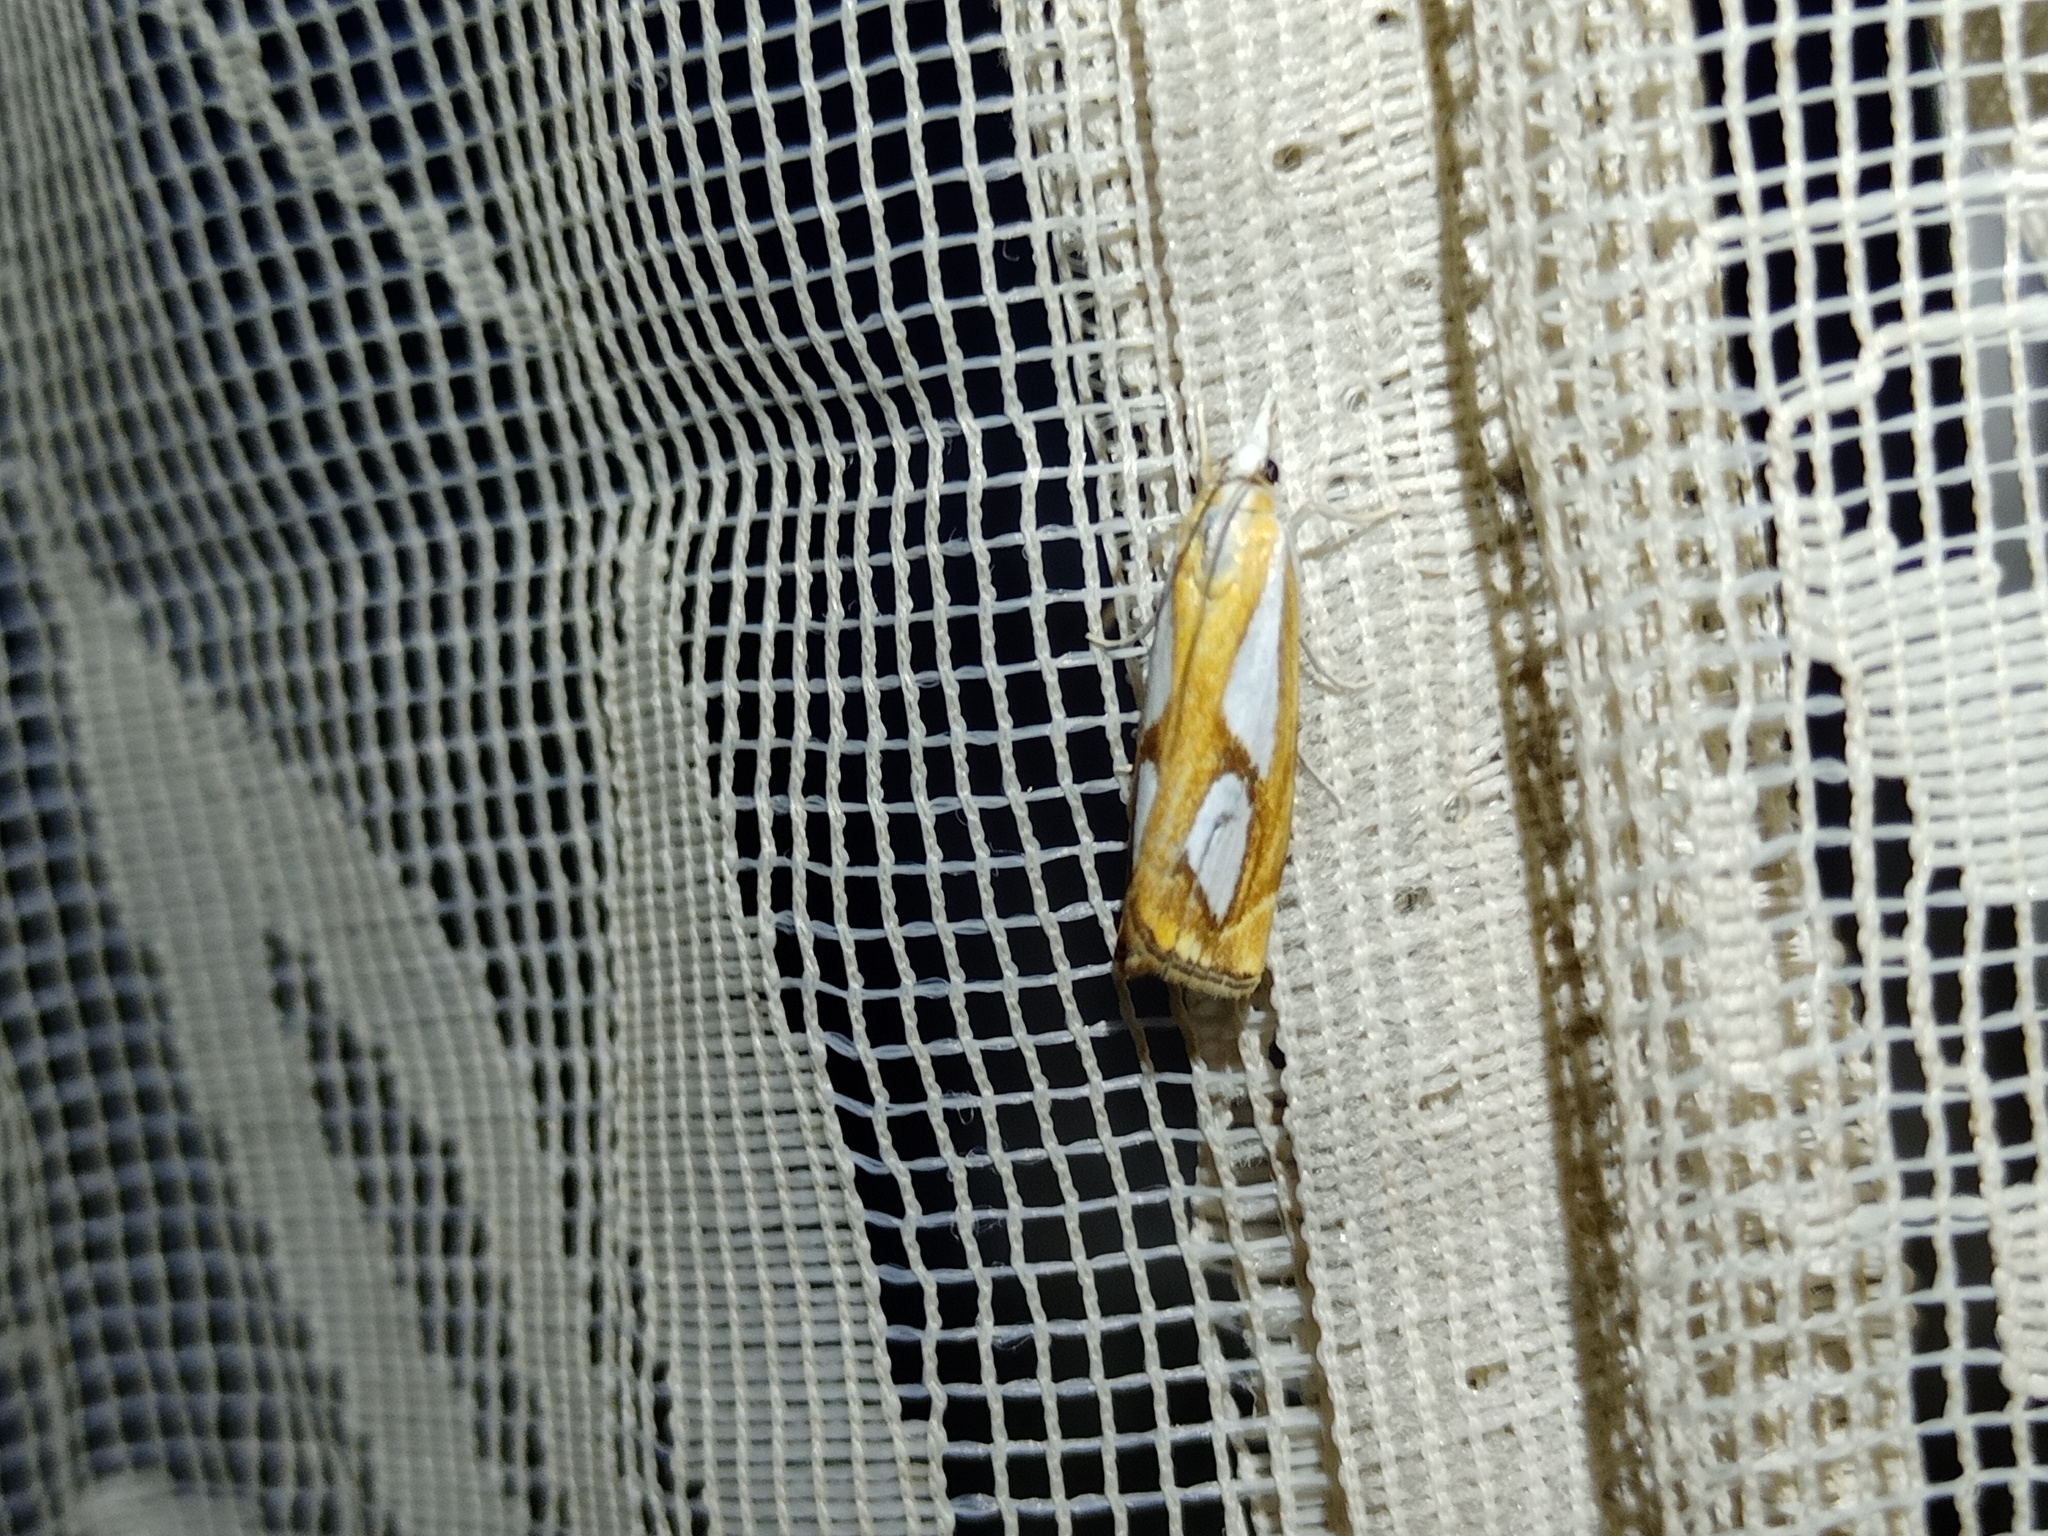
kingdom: Animalia
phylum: Arthropoda
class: Insecta
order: Lepidoptera
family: Crambidae
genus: Catoptria
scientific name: Catoptria pinella
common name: Pearl grass-veneer
